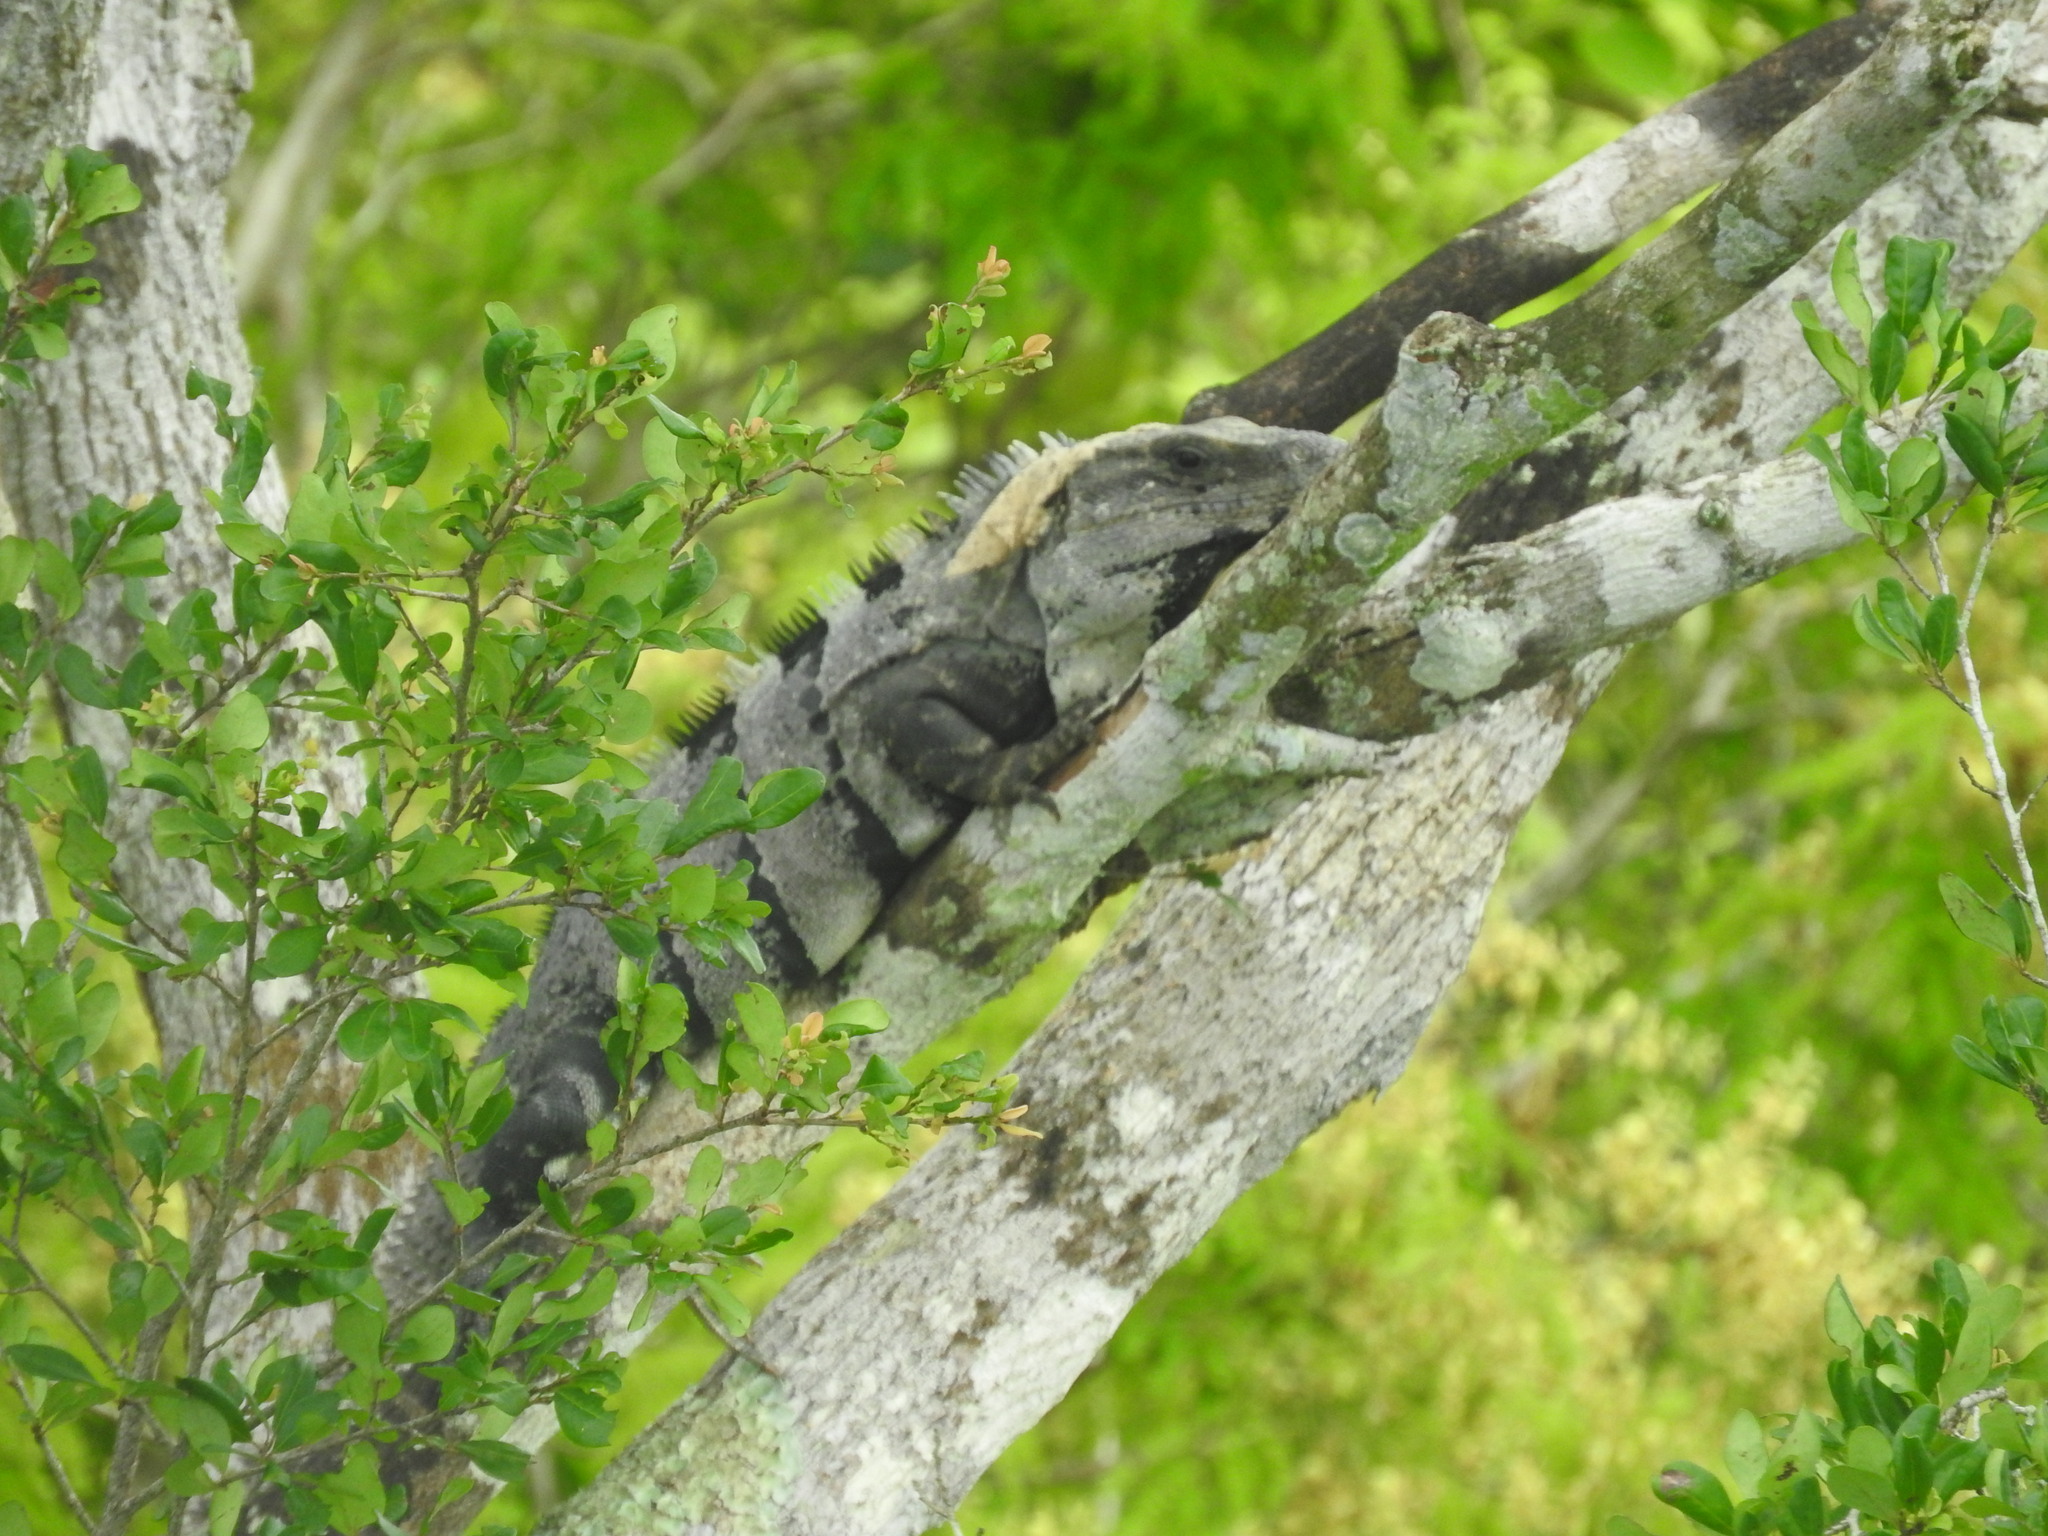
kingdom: Animalia
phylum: Chordata
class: Squamata
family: Iguanidae
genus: Ctenosaura
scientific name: Ctenosaura similis
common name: Black spiny-tailed iguana
